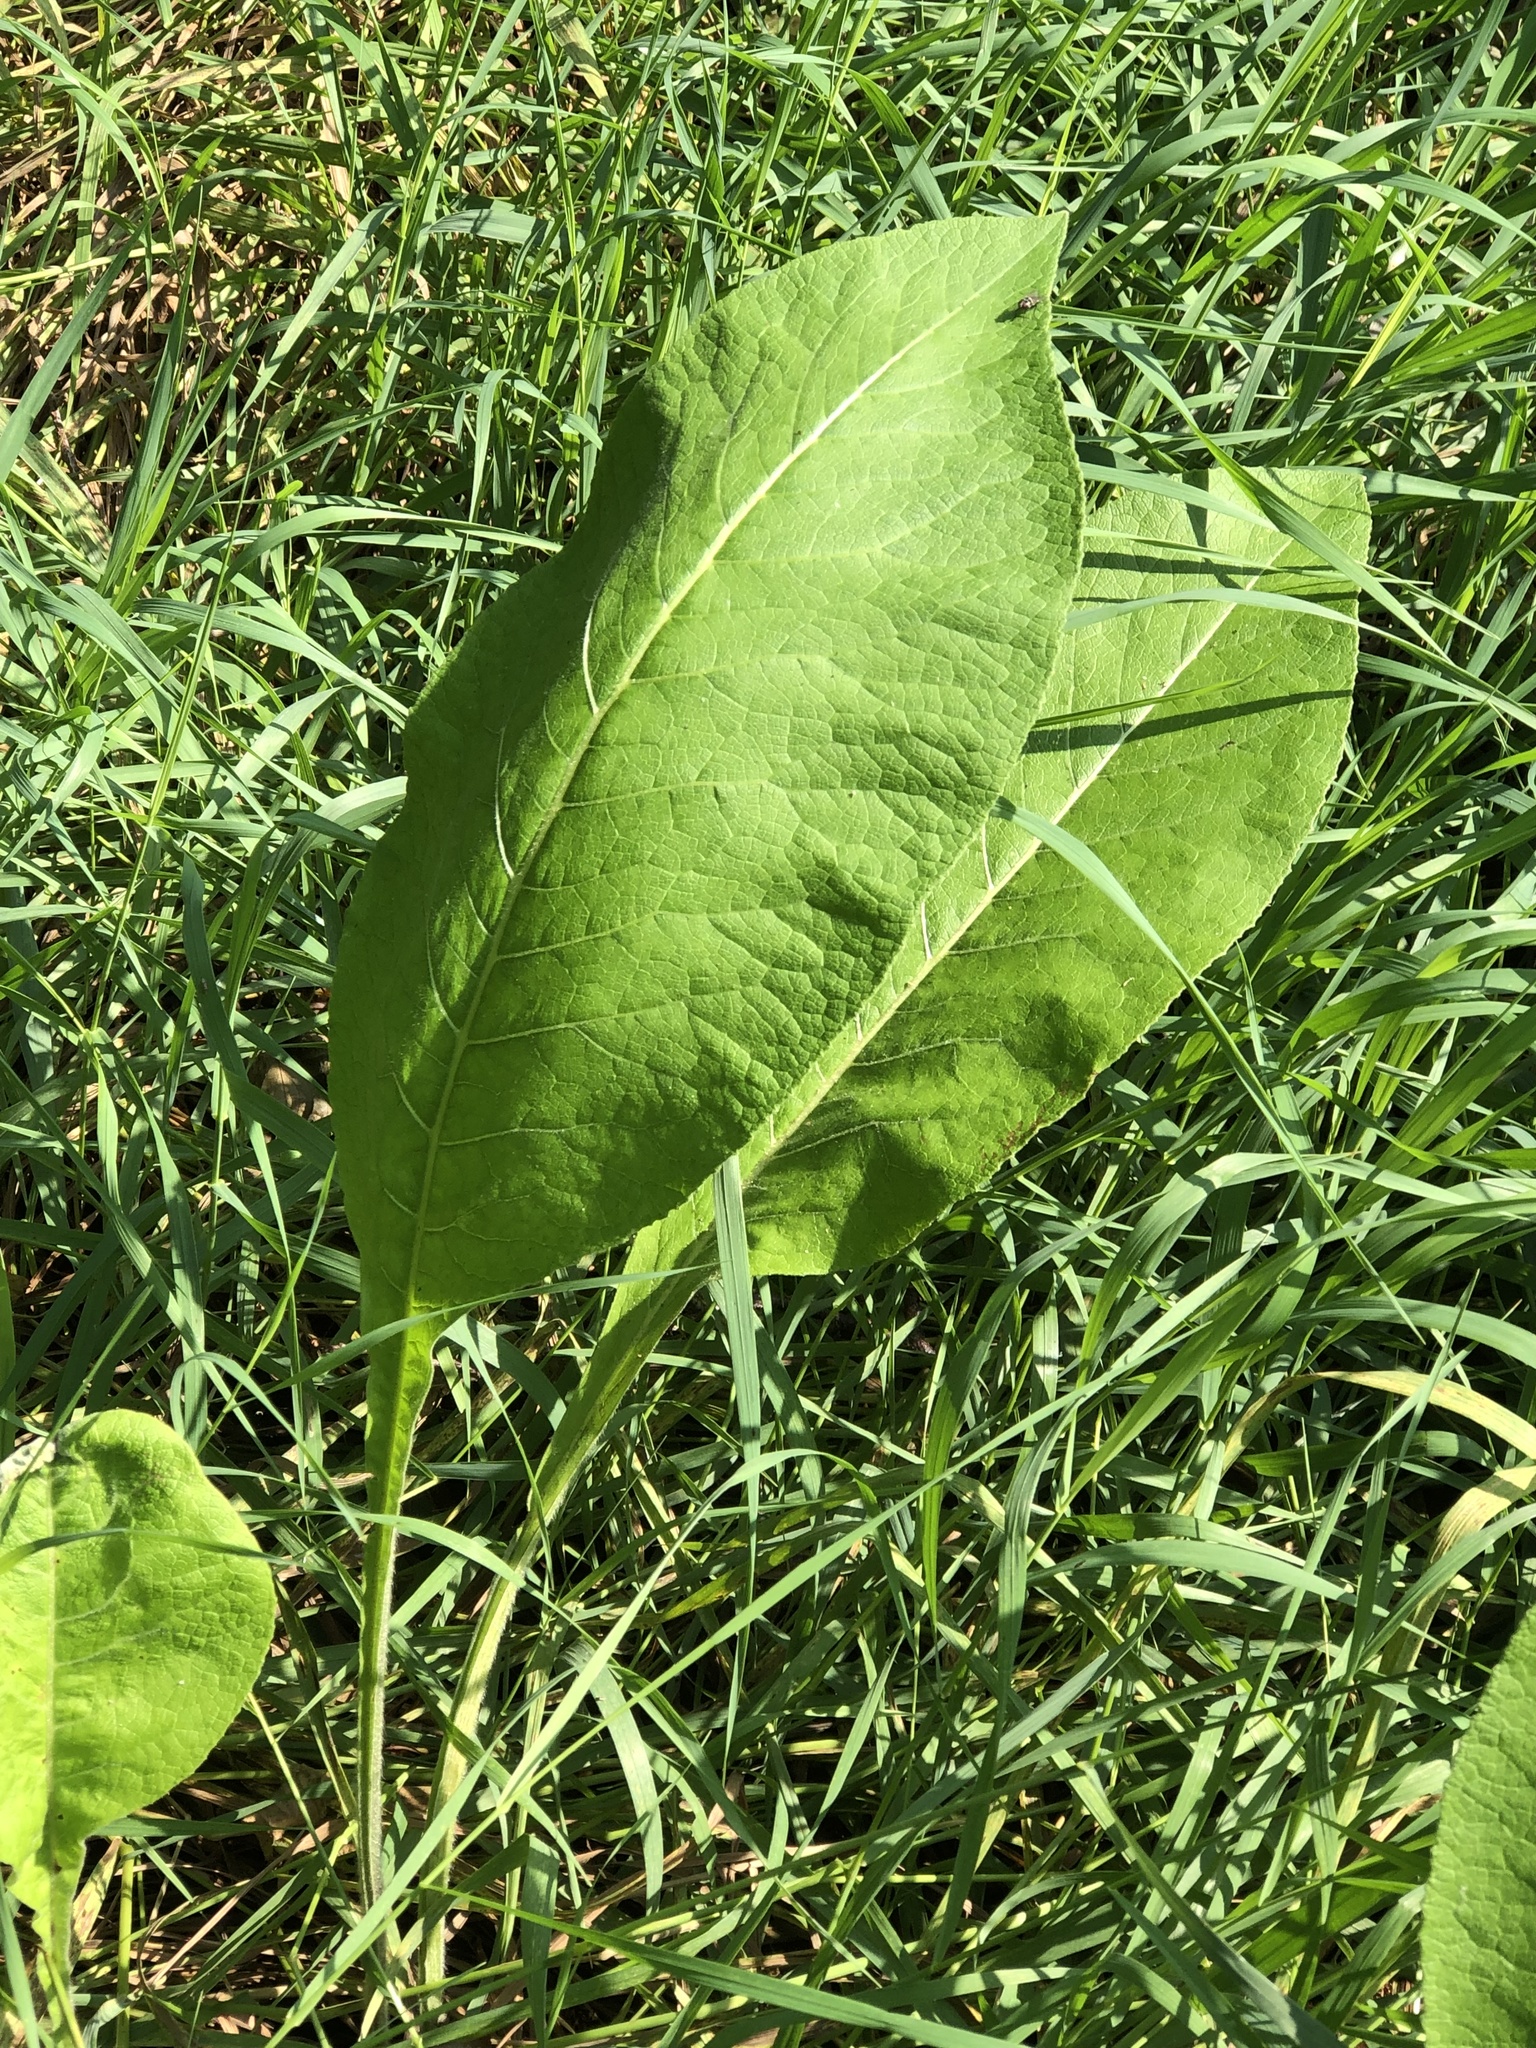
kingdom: Plantae
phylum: Tracheophyta
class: Magnoliopsida
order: Asterales
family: Asteraceae
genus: Inula
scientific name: Inula helenium
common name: Elecampane
